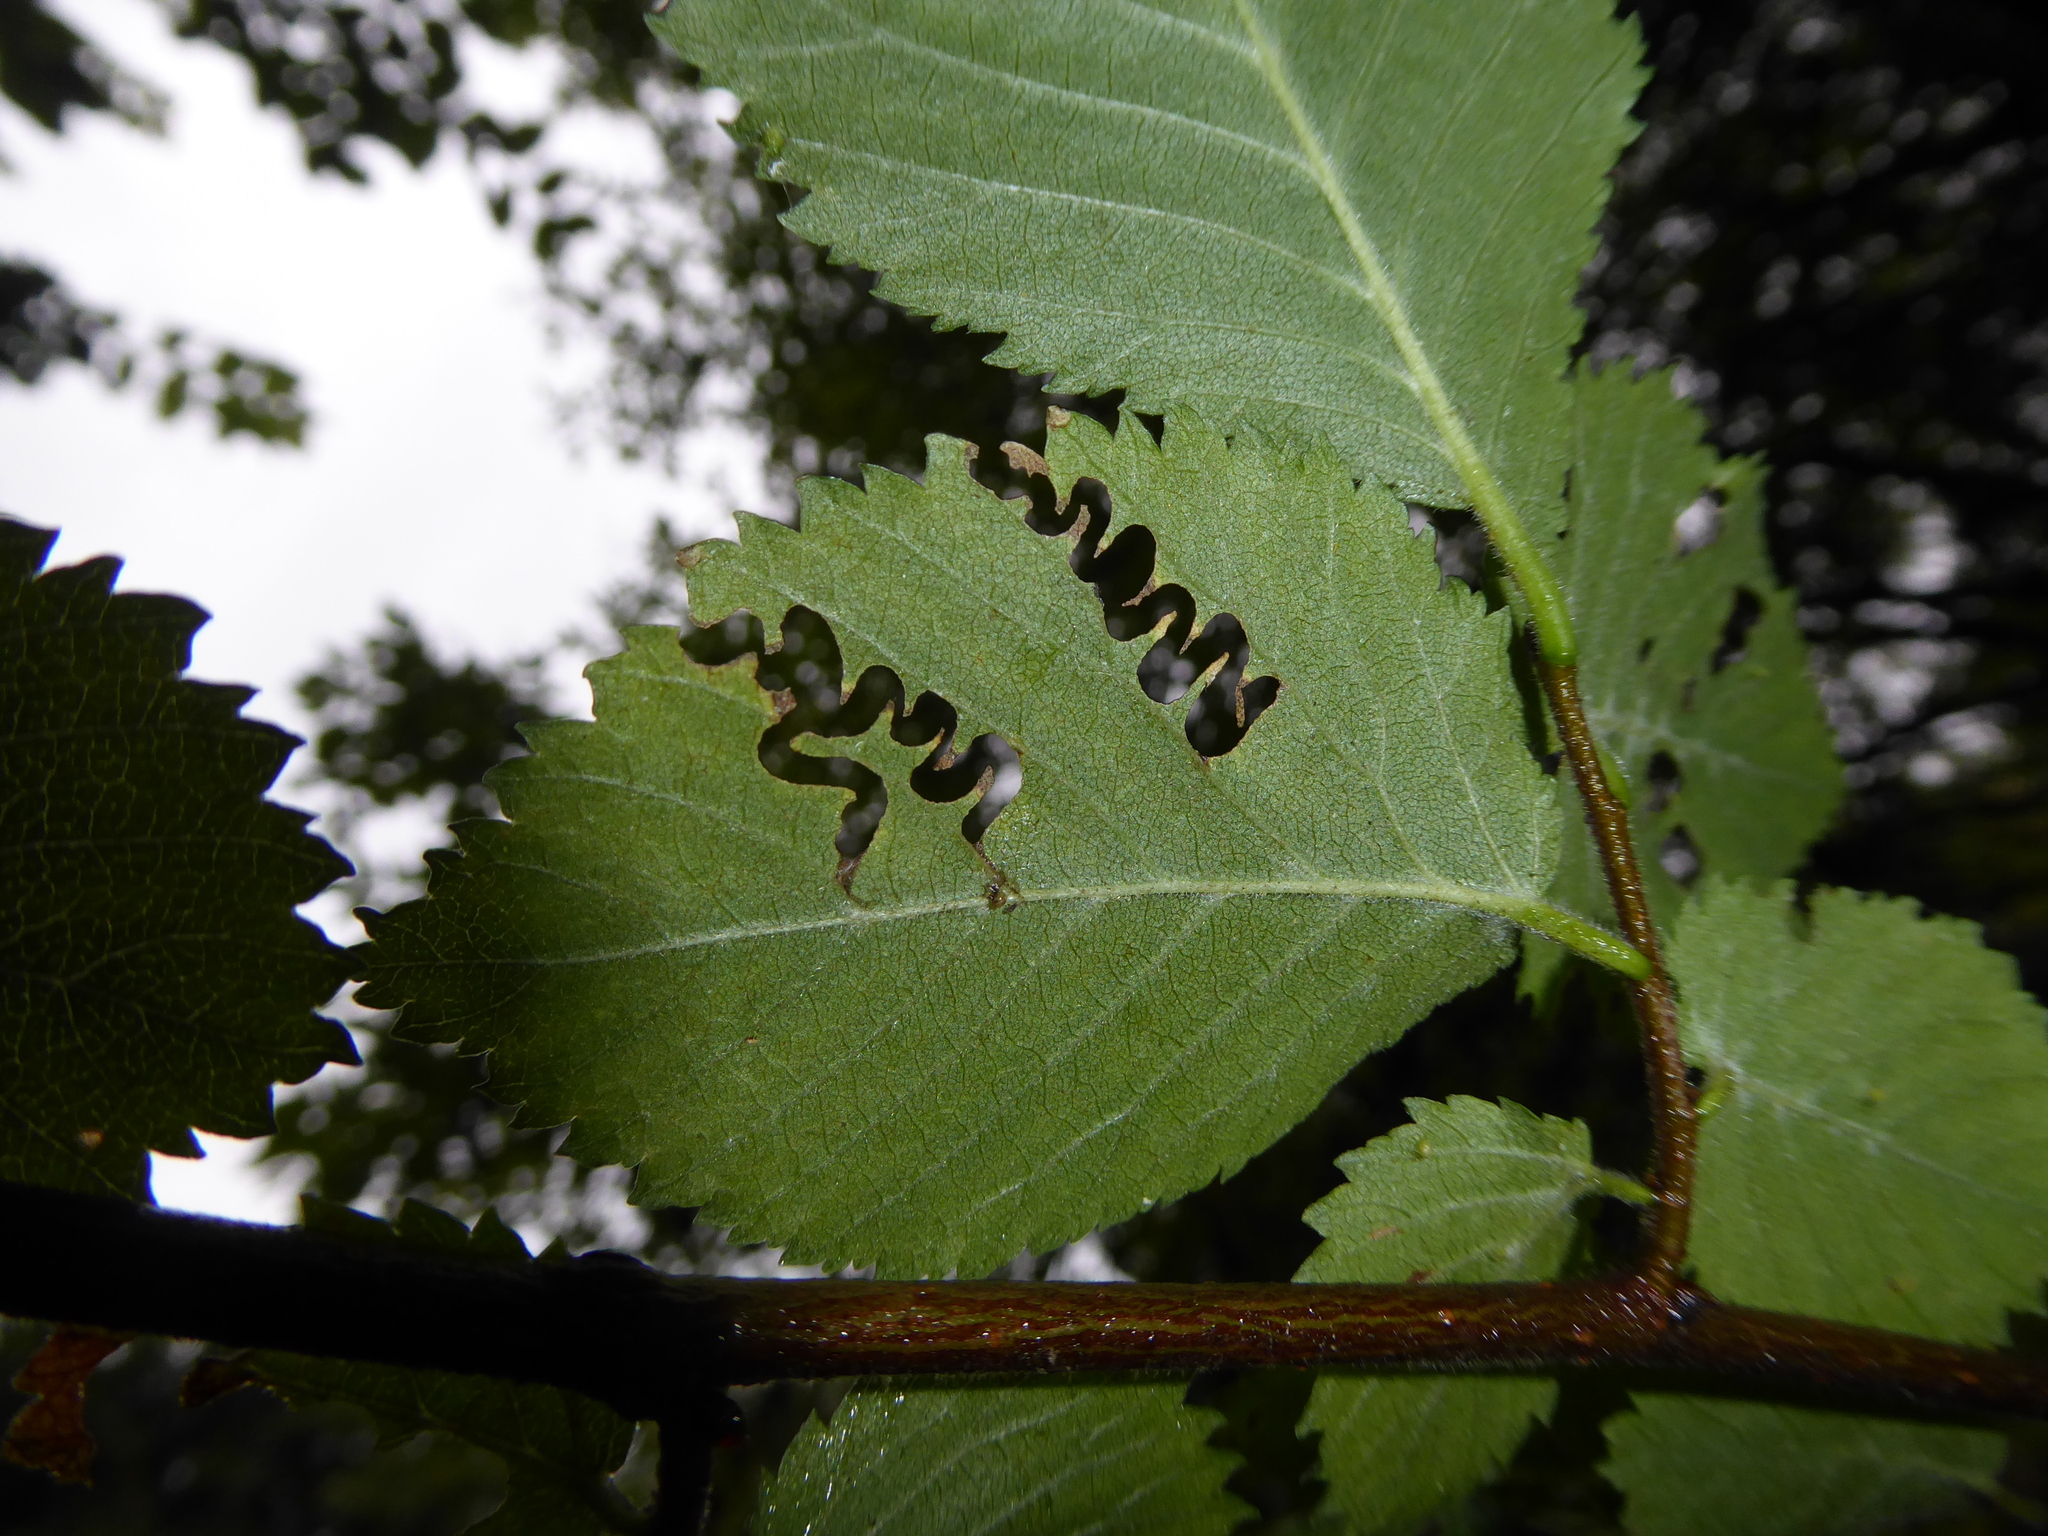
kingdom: Animalia
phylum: Arthropoda
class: Insecta
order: Hymenoptera
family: Argidae
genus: Aproceros
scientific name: Aproceros leucopoda
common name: Zig-zag elm sawfly
